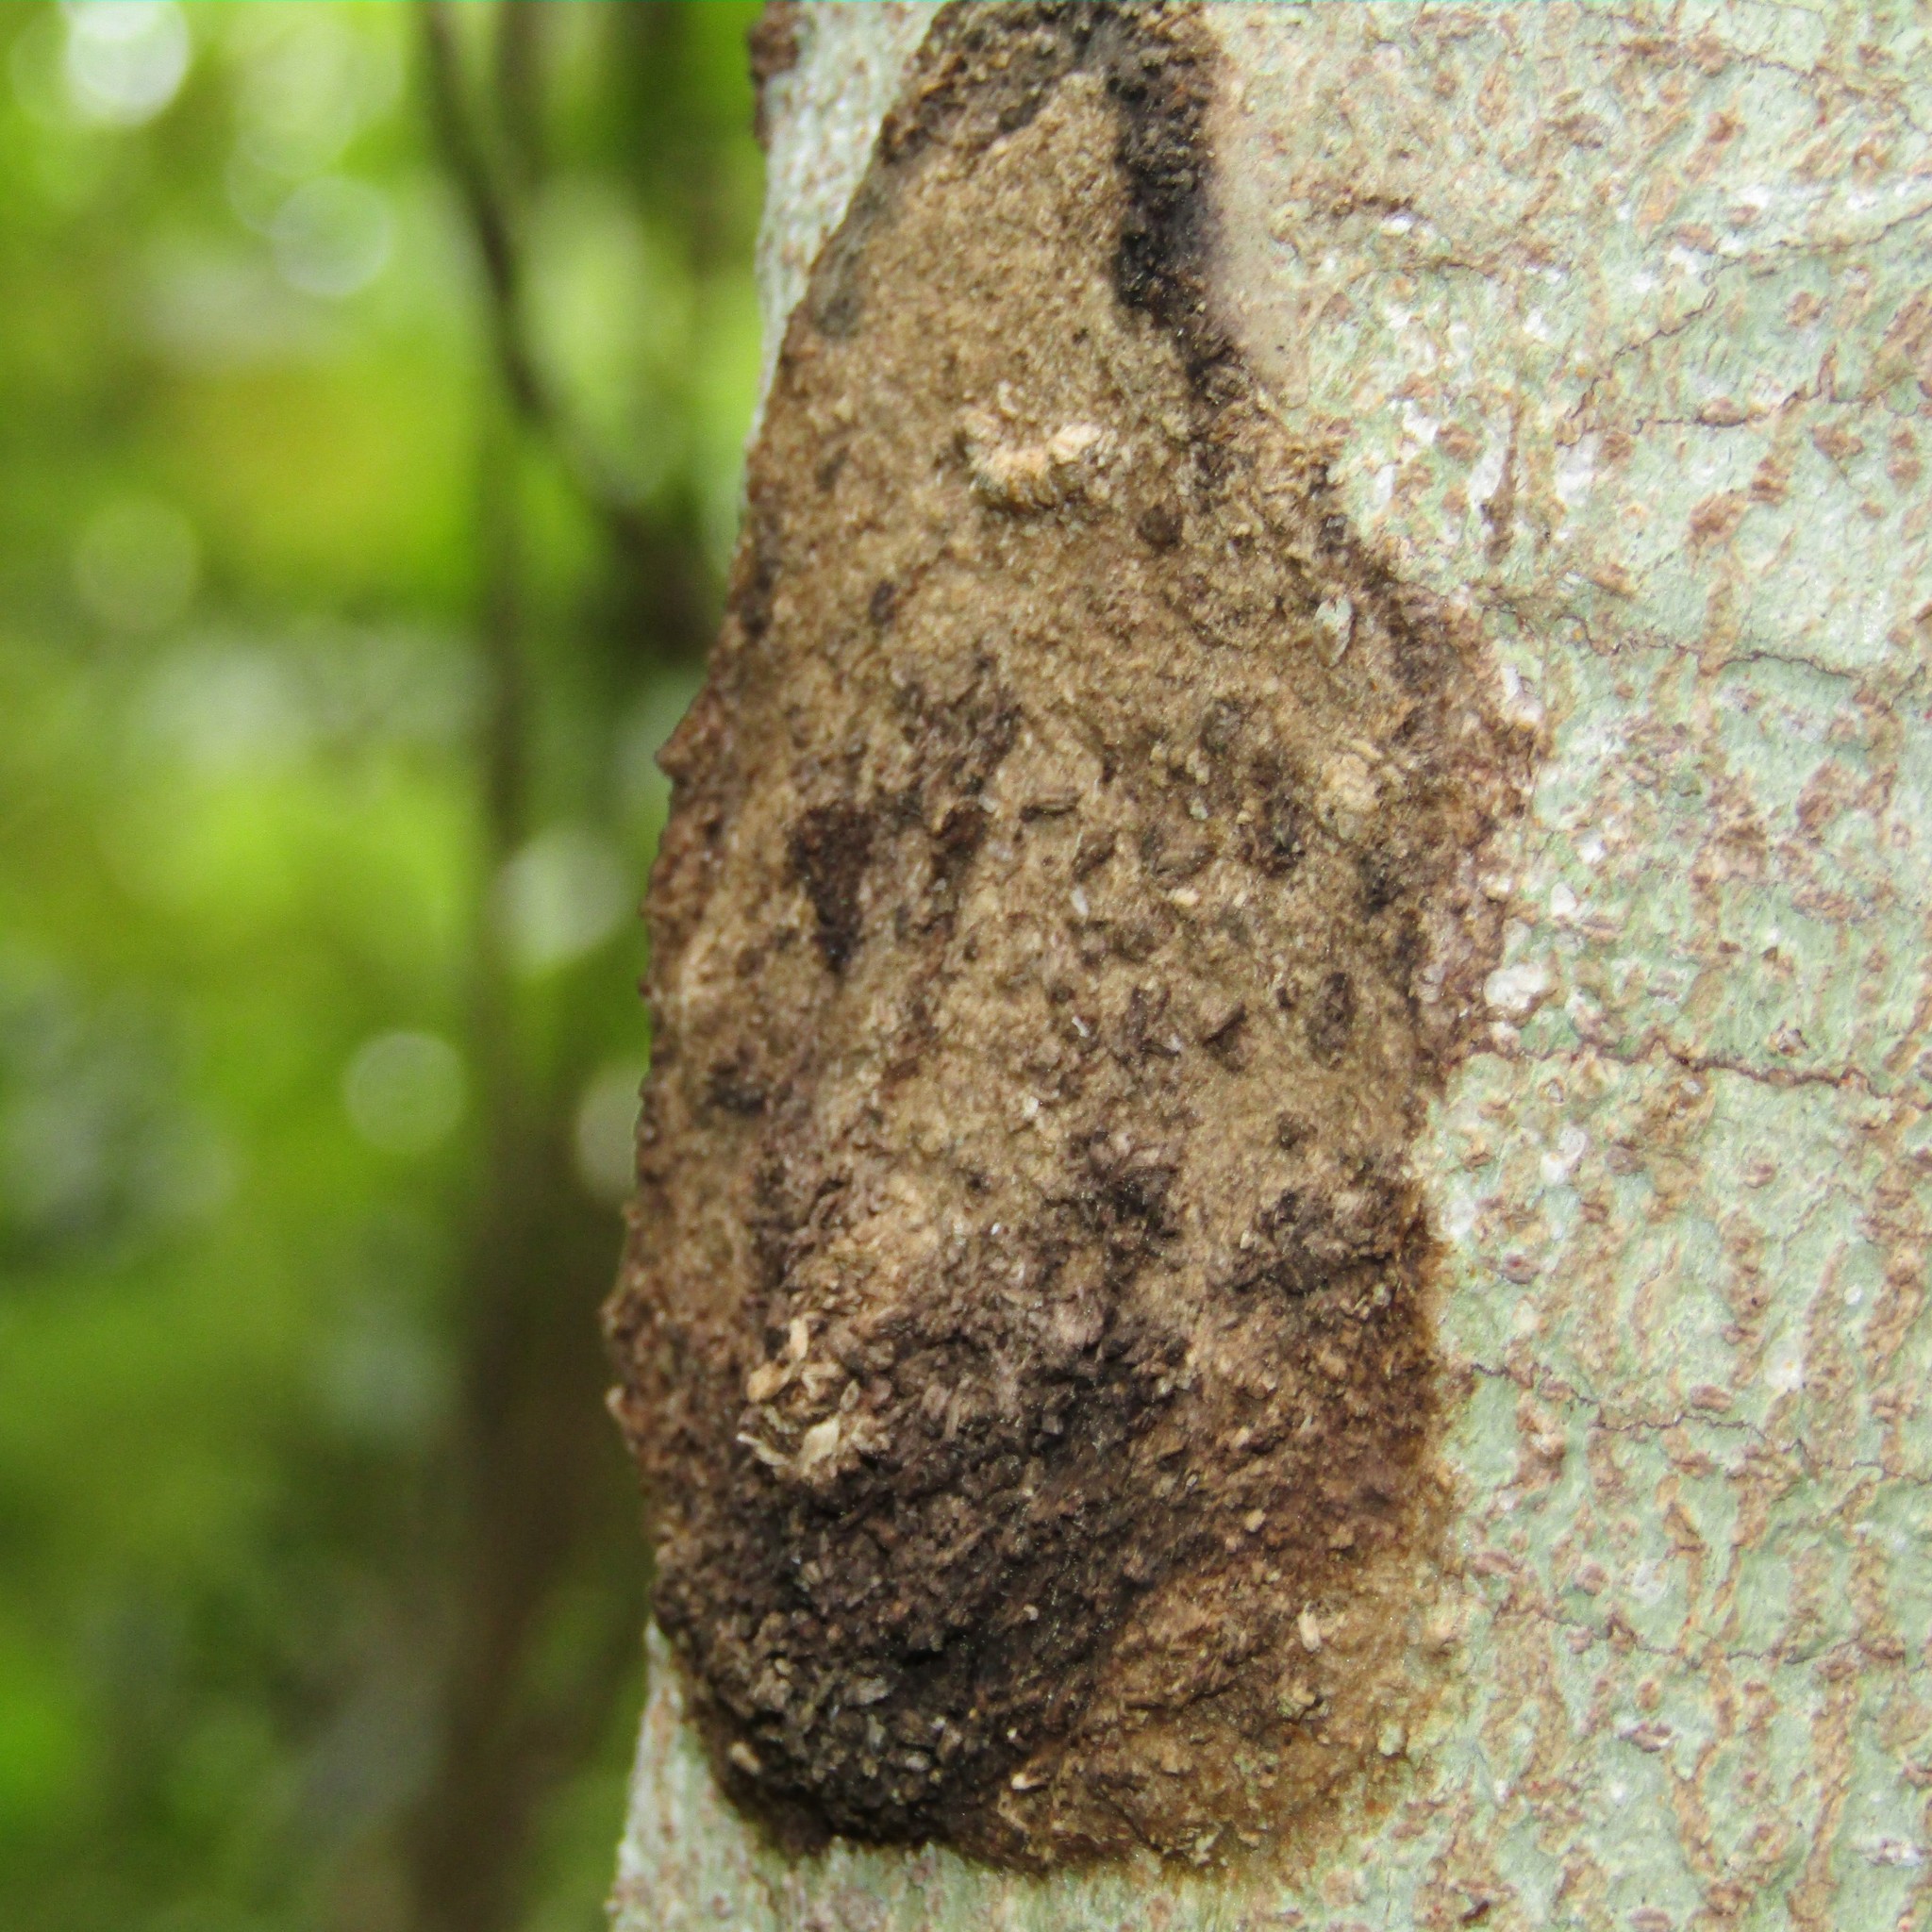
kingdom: Animalia
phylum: Arthropoda
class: Insecta
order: Lepidoptera
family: Hepialidae
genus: Aenetus
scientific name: Aenetus virescens
